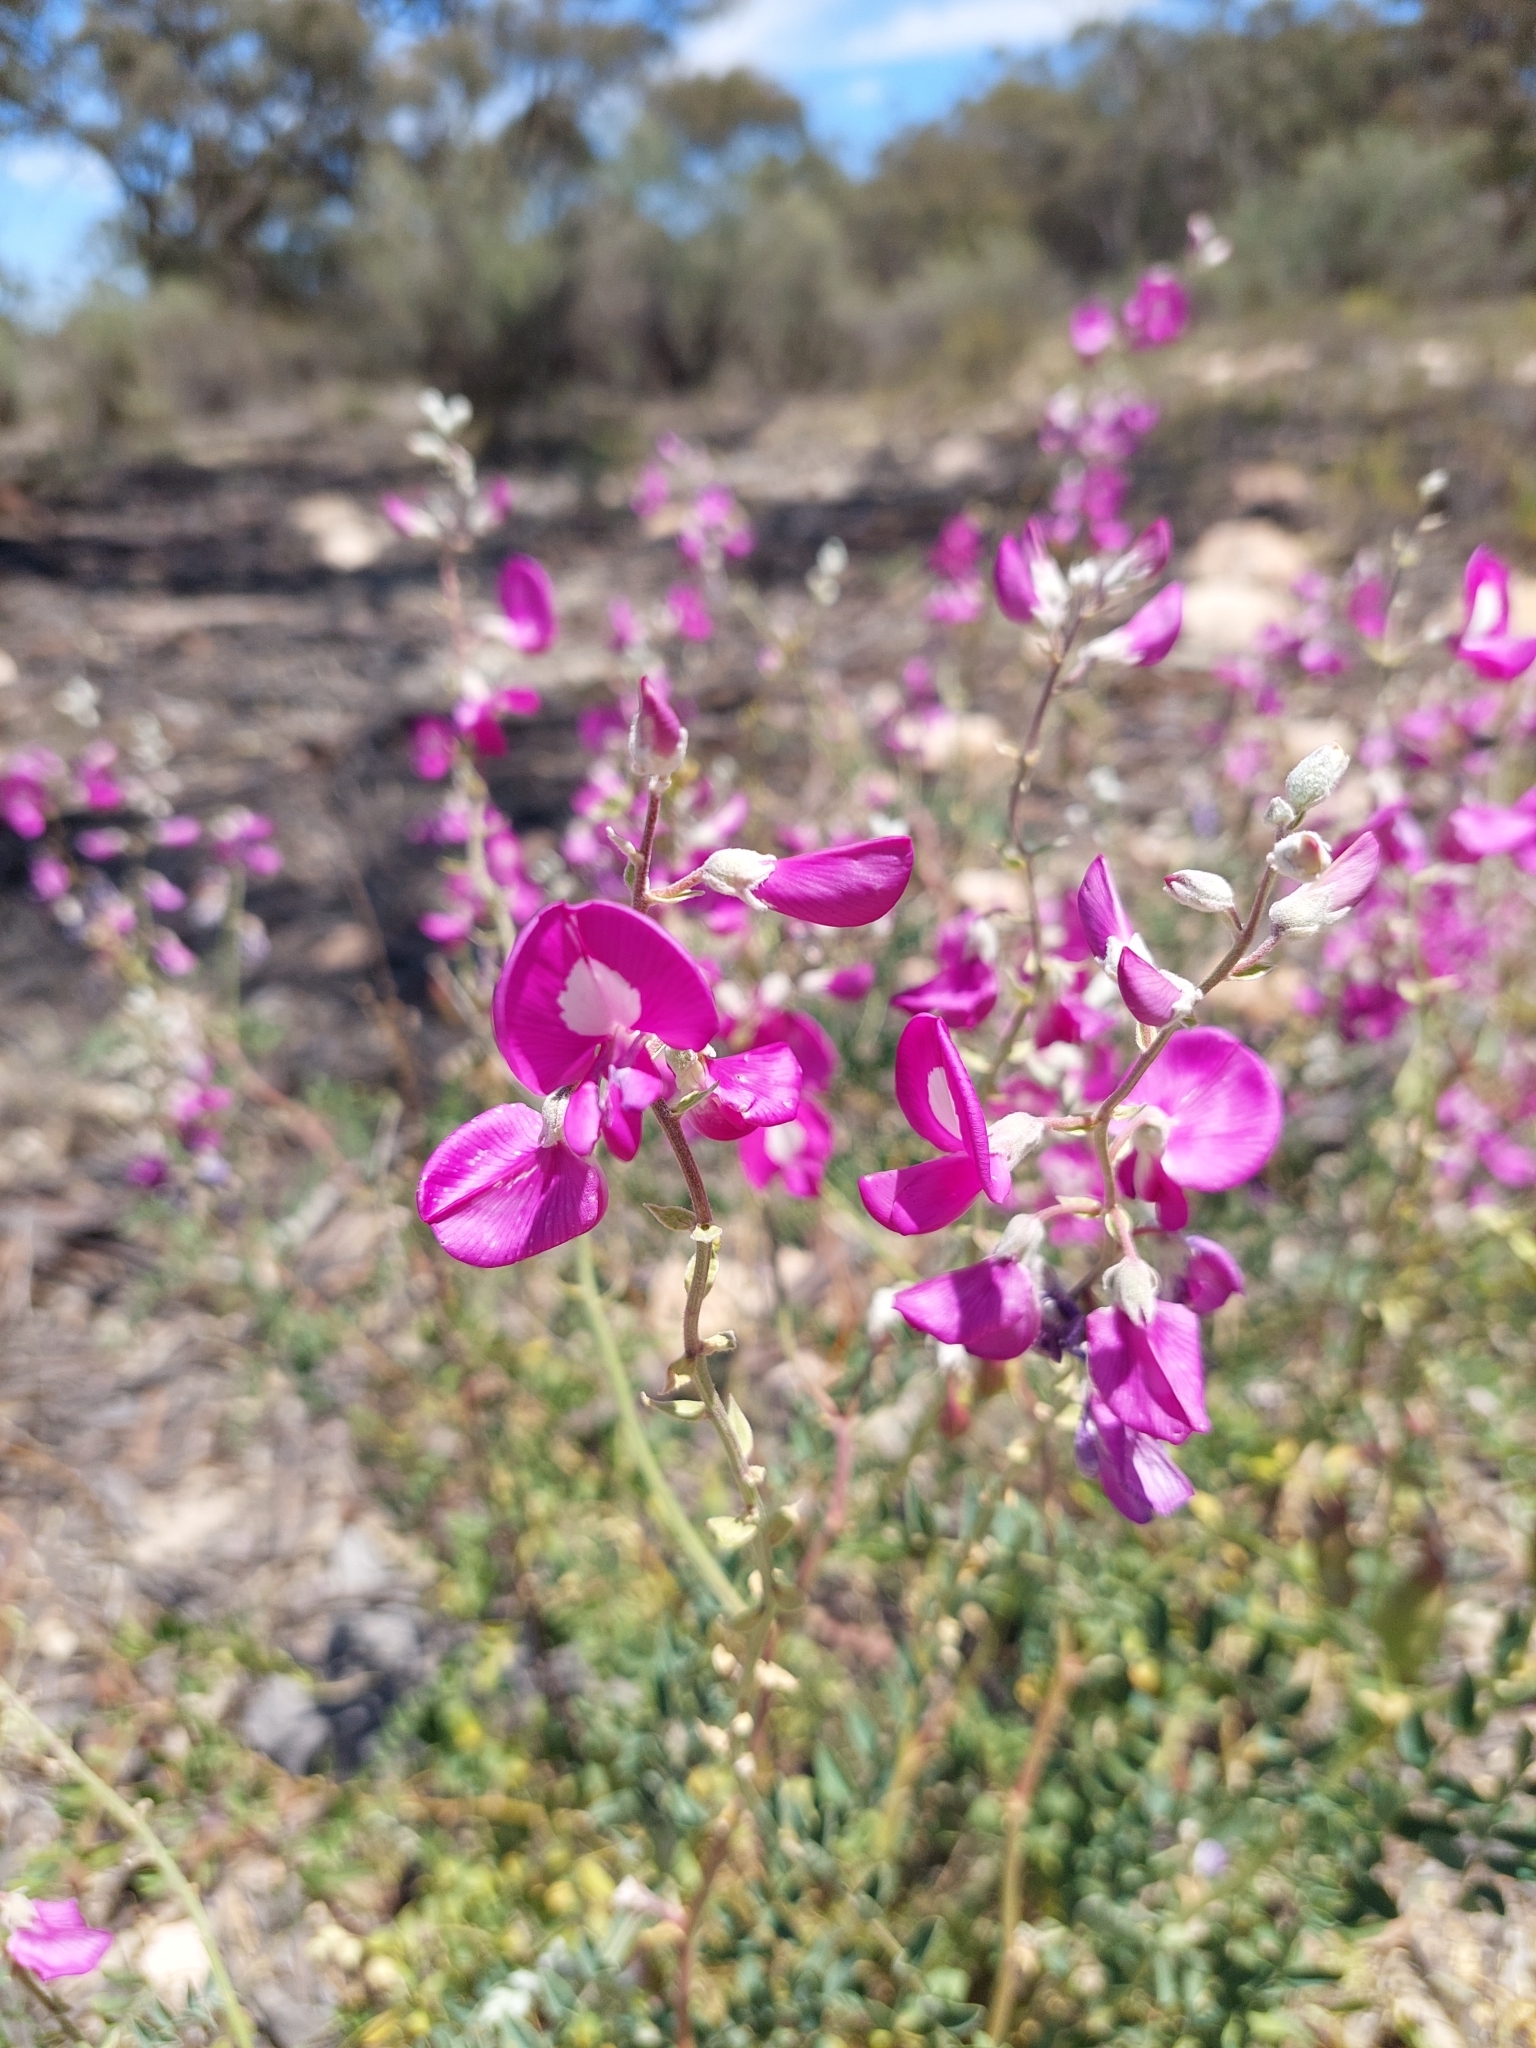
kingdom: Plantae
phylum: Tracheophyta
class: Magnoliopsida
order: Fabales
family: Fabaceae
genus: Swainsona
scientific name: Swainsona greyana
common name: Darling-pea
